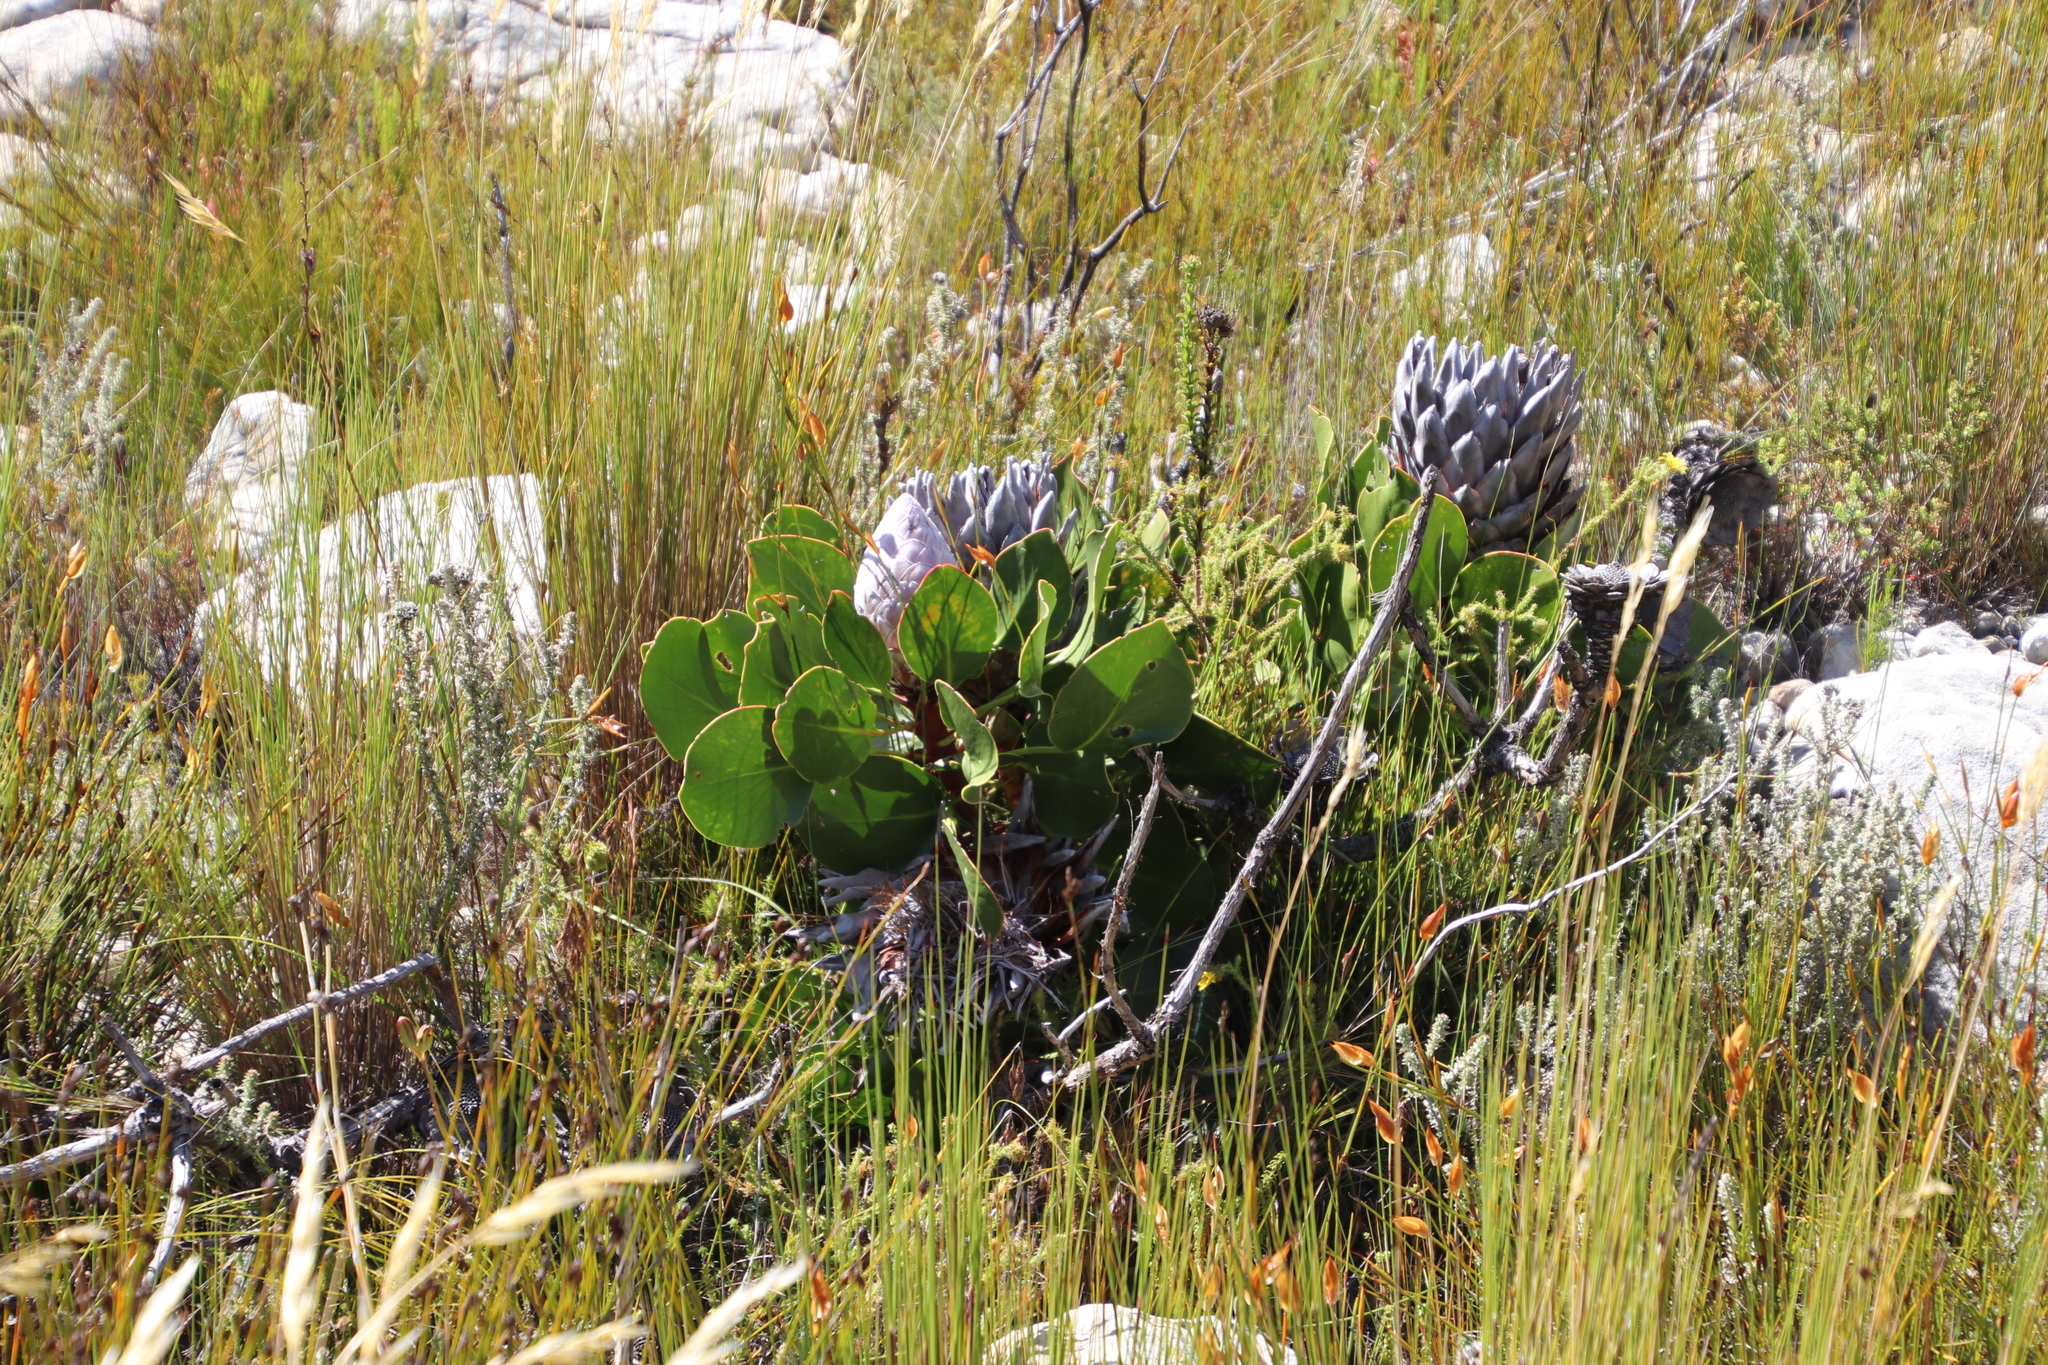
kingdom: Plantae
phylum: Tracheophyta
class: Magnoliopsida
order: Proteales
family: Proteaceae
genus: Protea
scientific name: Protea cynaroides
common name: King protea
